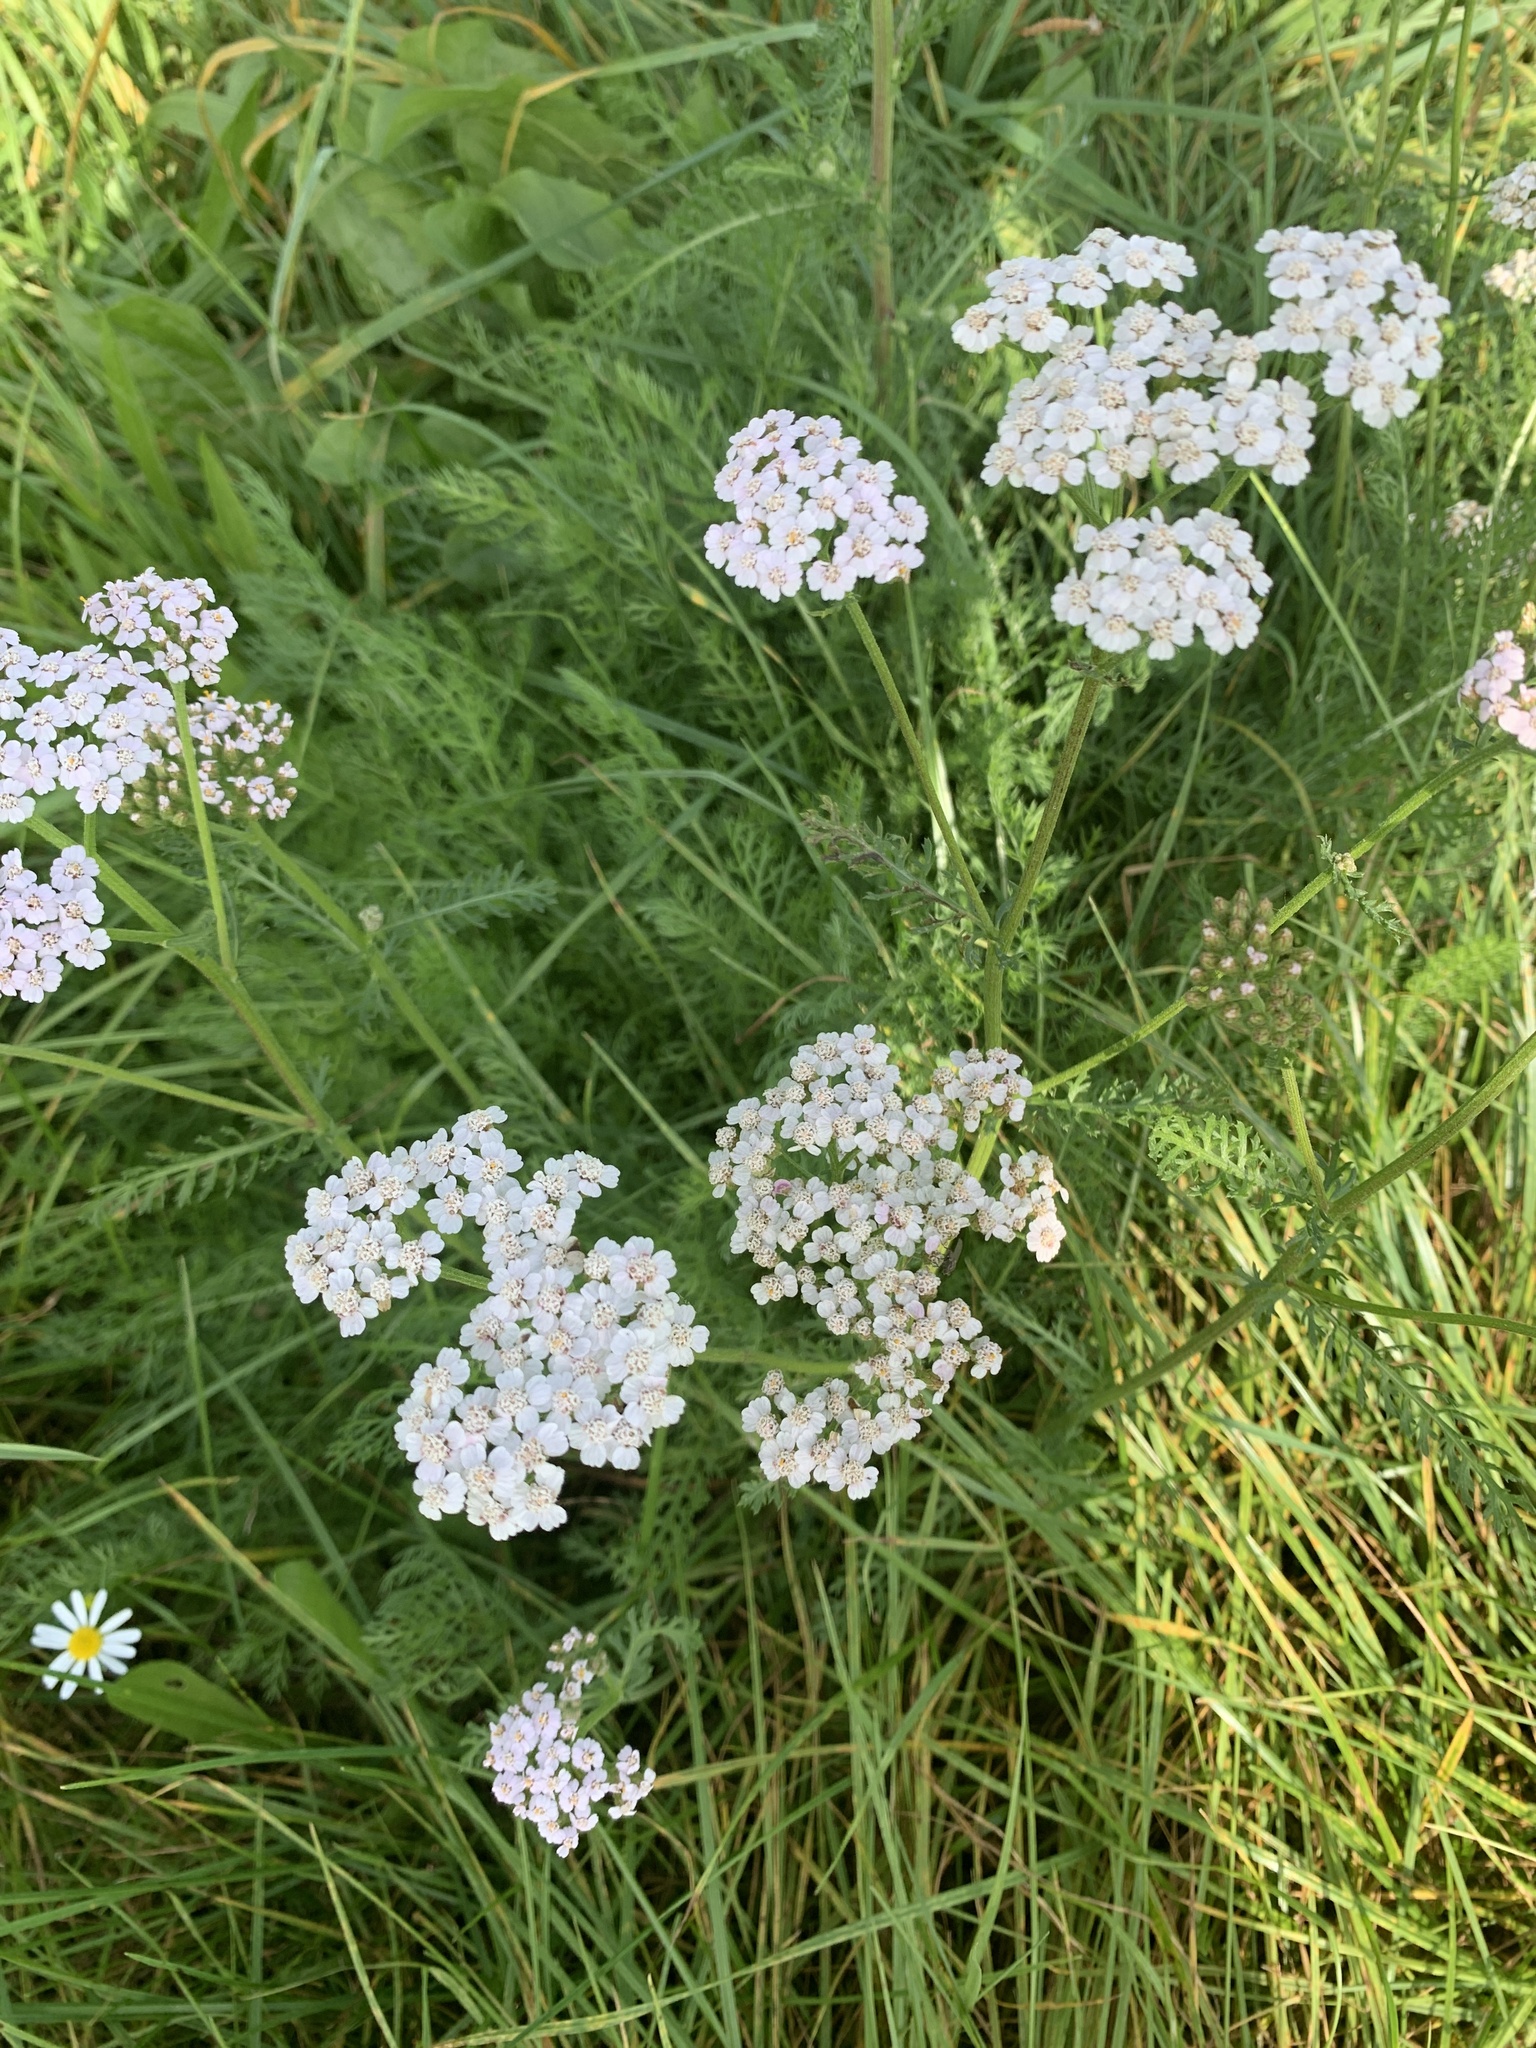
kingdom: Plantae
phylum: Tracheophyta
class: Magnoliopsida
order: Asterales
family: Asteraceae
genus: Achillea
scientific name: Achillea millefolium
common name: Yarrow
